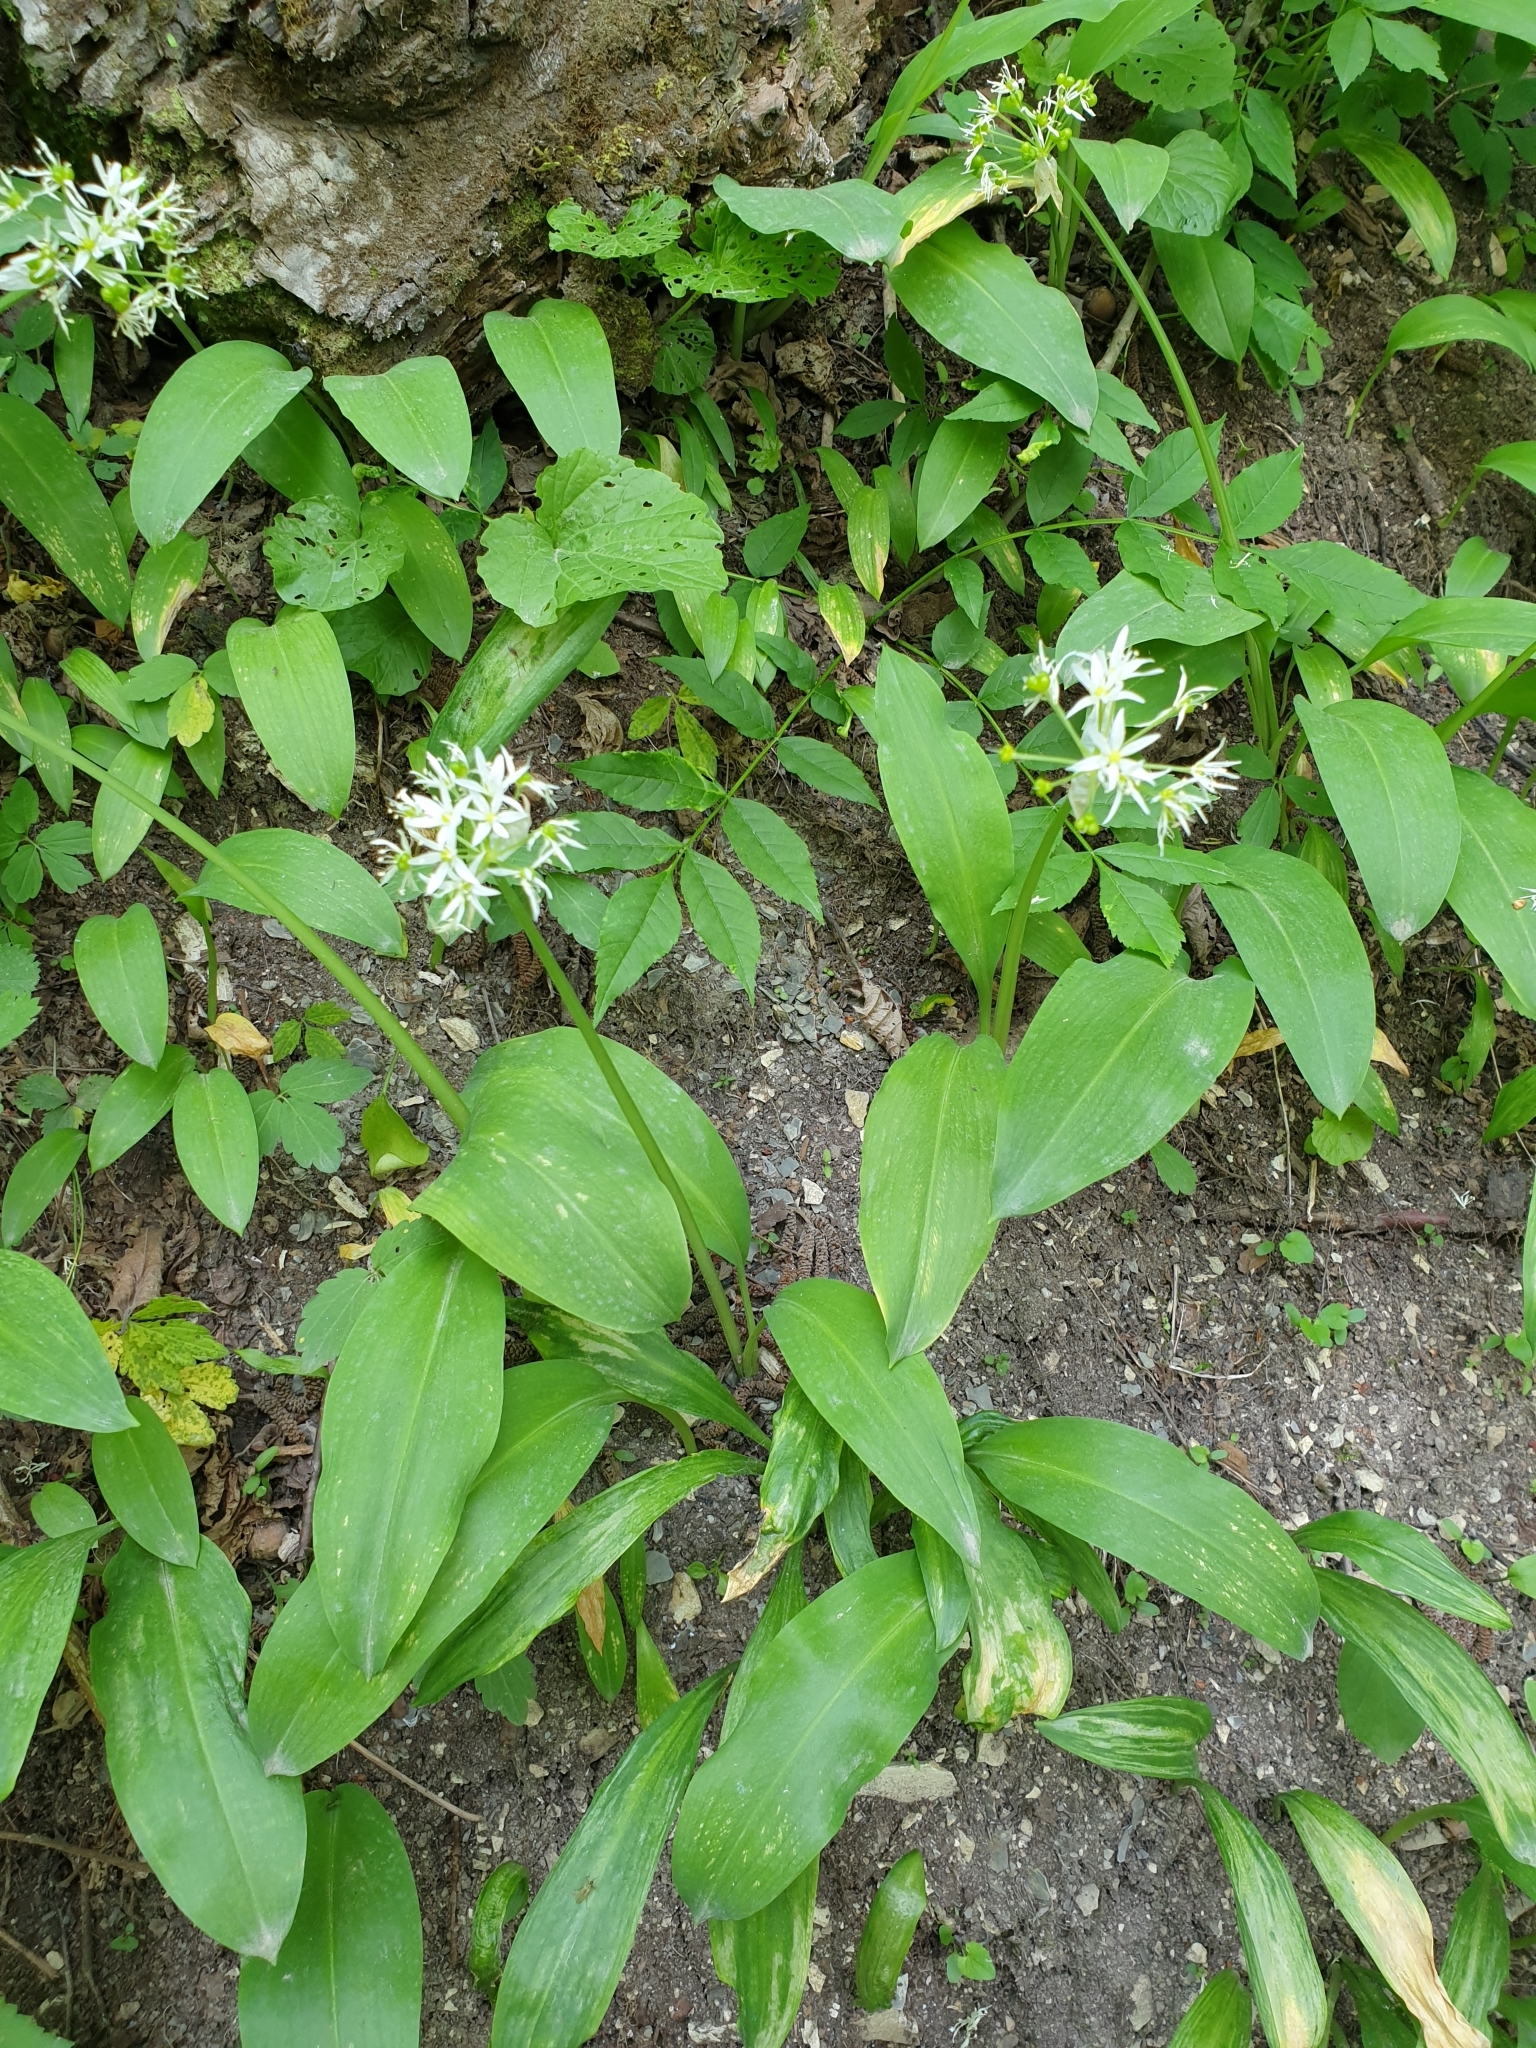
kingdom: Plantae
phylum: Tracheophyta
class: Liliopsida
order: Asparagales
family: Amaryllidaceae
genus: Allium
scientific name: Allium ursinum
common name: Ramsons
